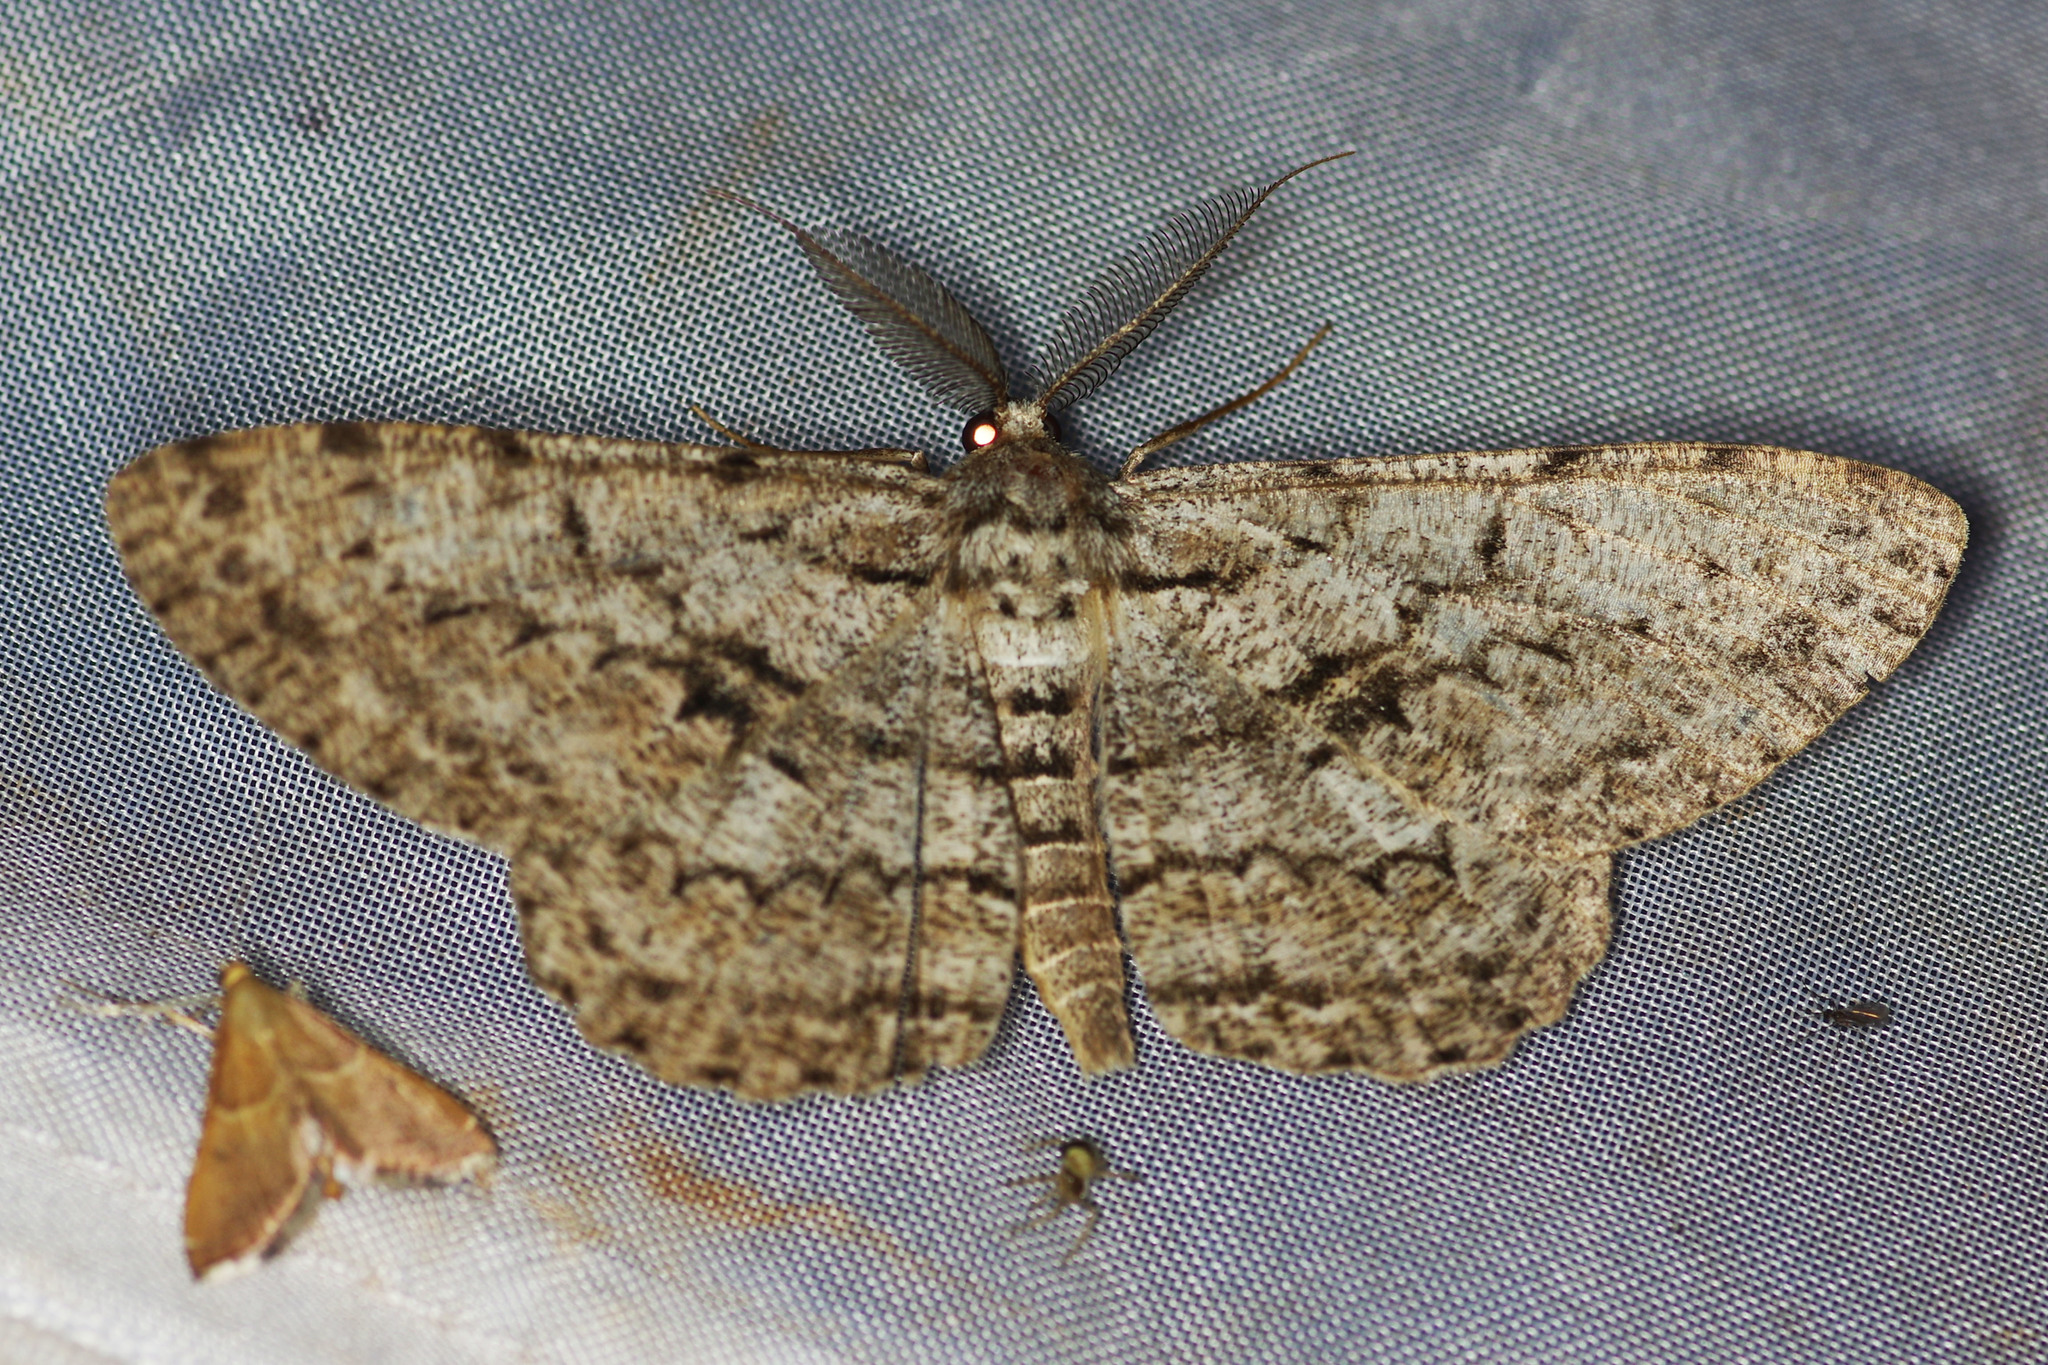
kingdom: Animalia
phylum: Arthropoda
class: Insecta
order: Lepidoptera
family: Geometridae
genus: Hypomecis
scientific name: Hypomecis roboraria
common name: Great oak beauty
